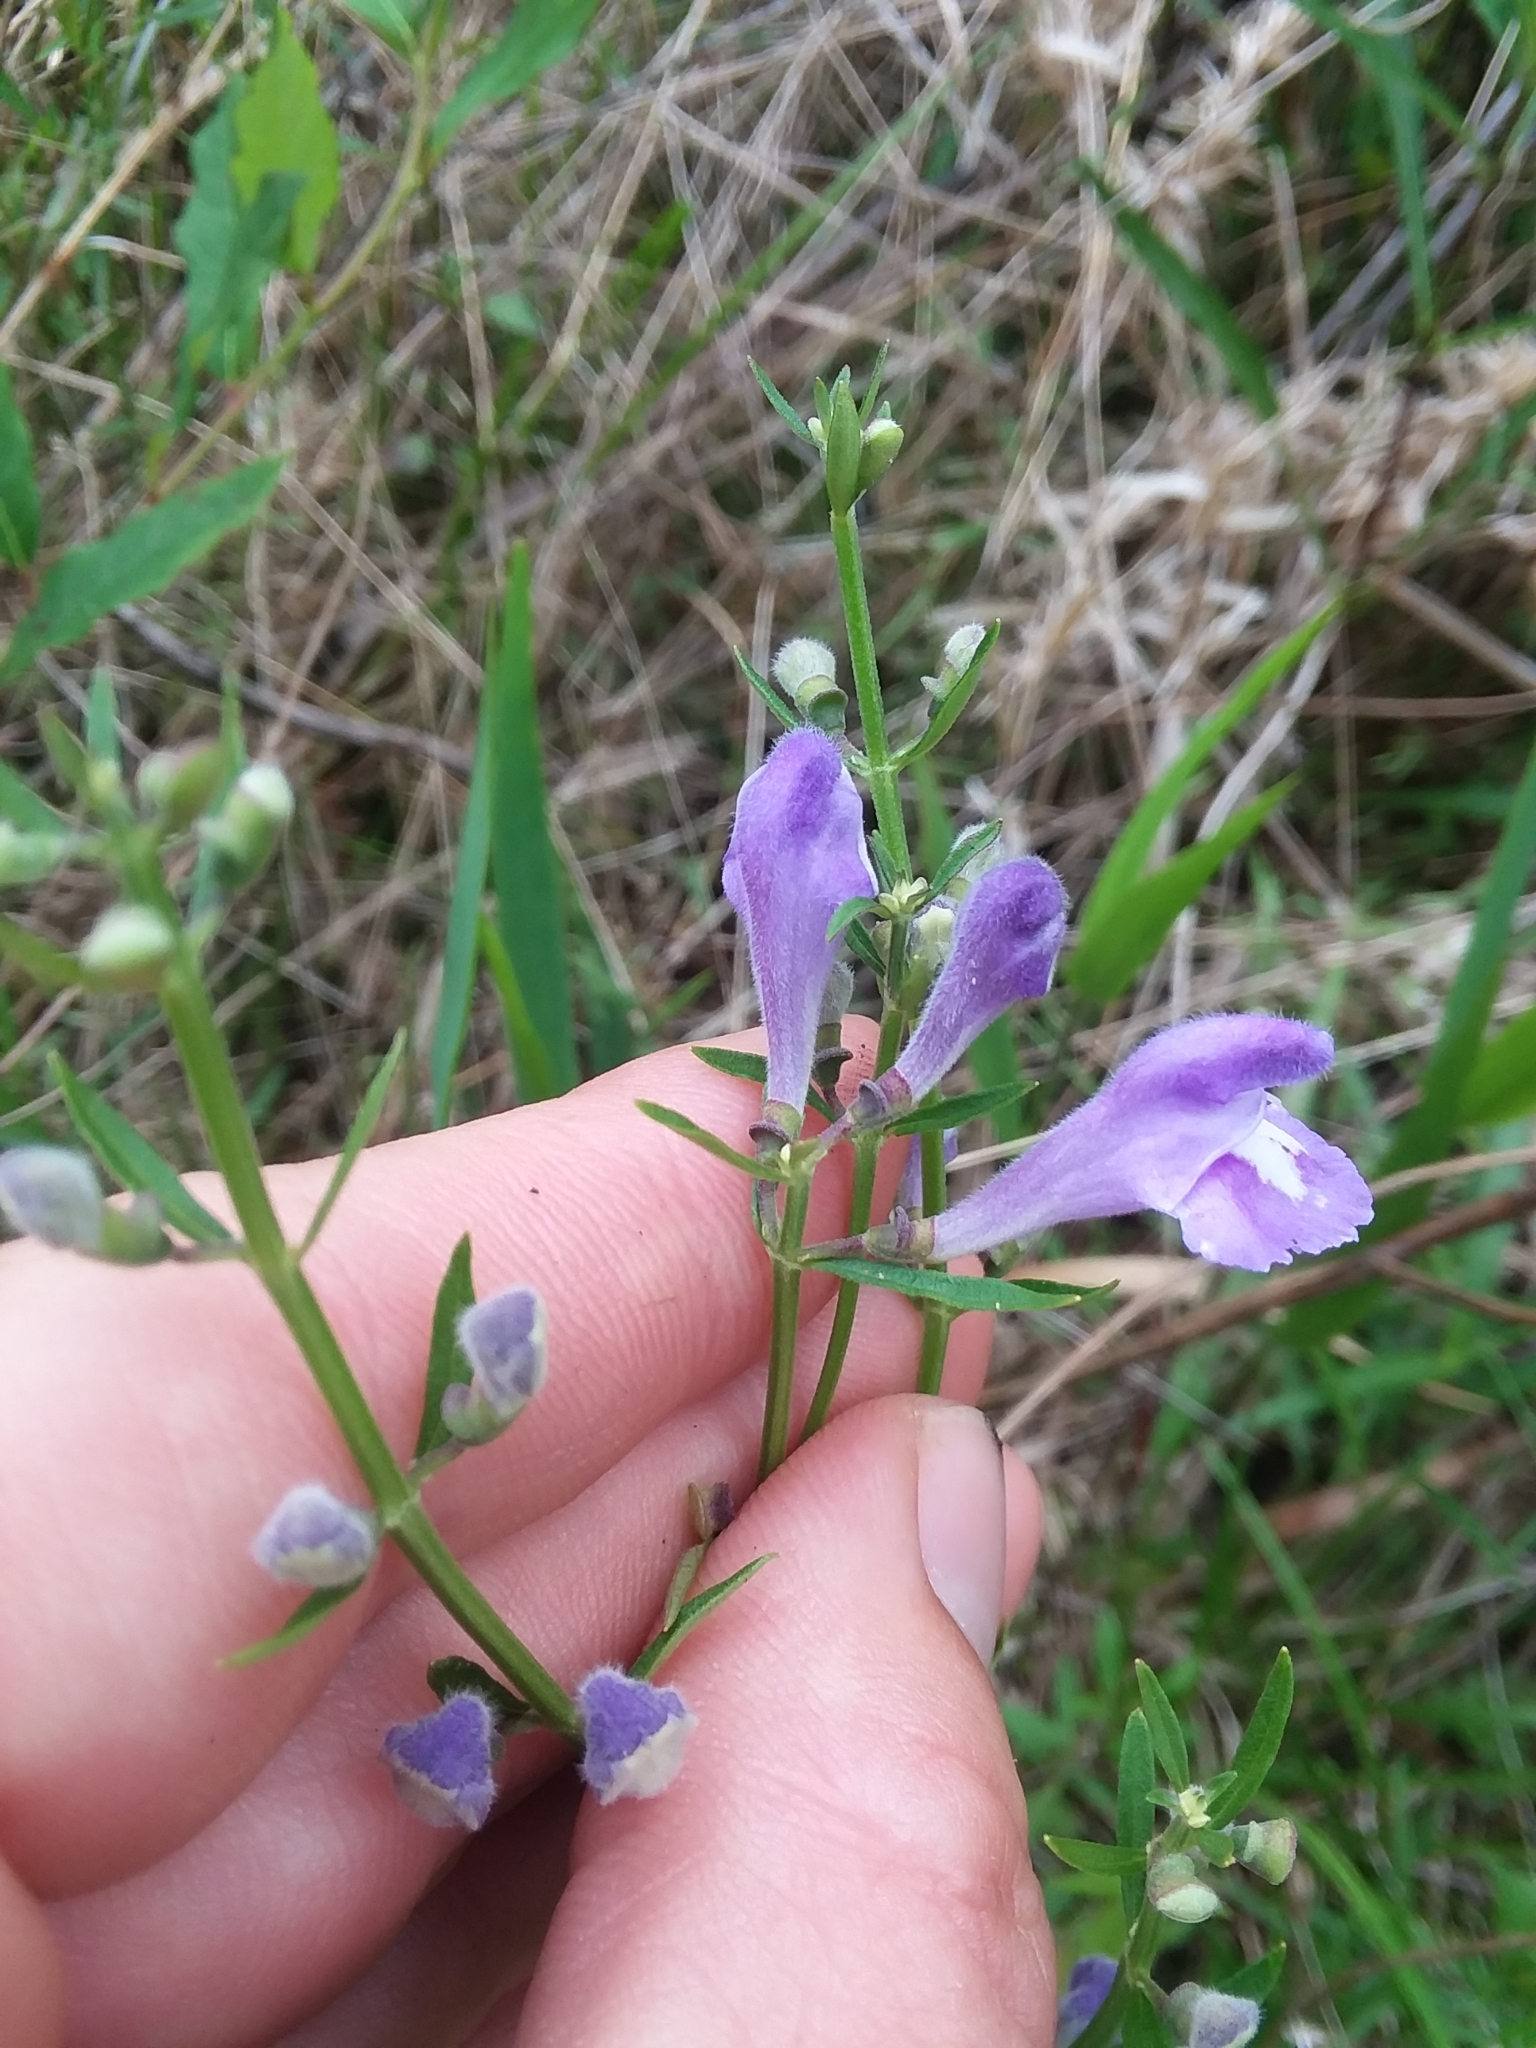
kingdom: Plantae
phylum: Tracheophyta
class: Magnoliopsida
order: Lamiales
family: Lamiaceae
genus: Scutellaria
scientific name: Scutellaria integrifolia
